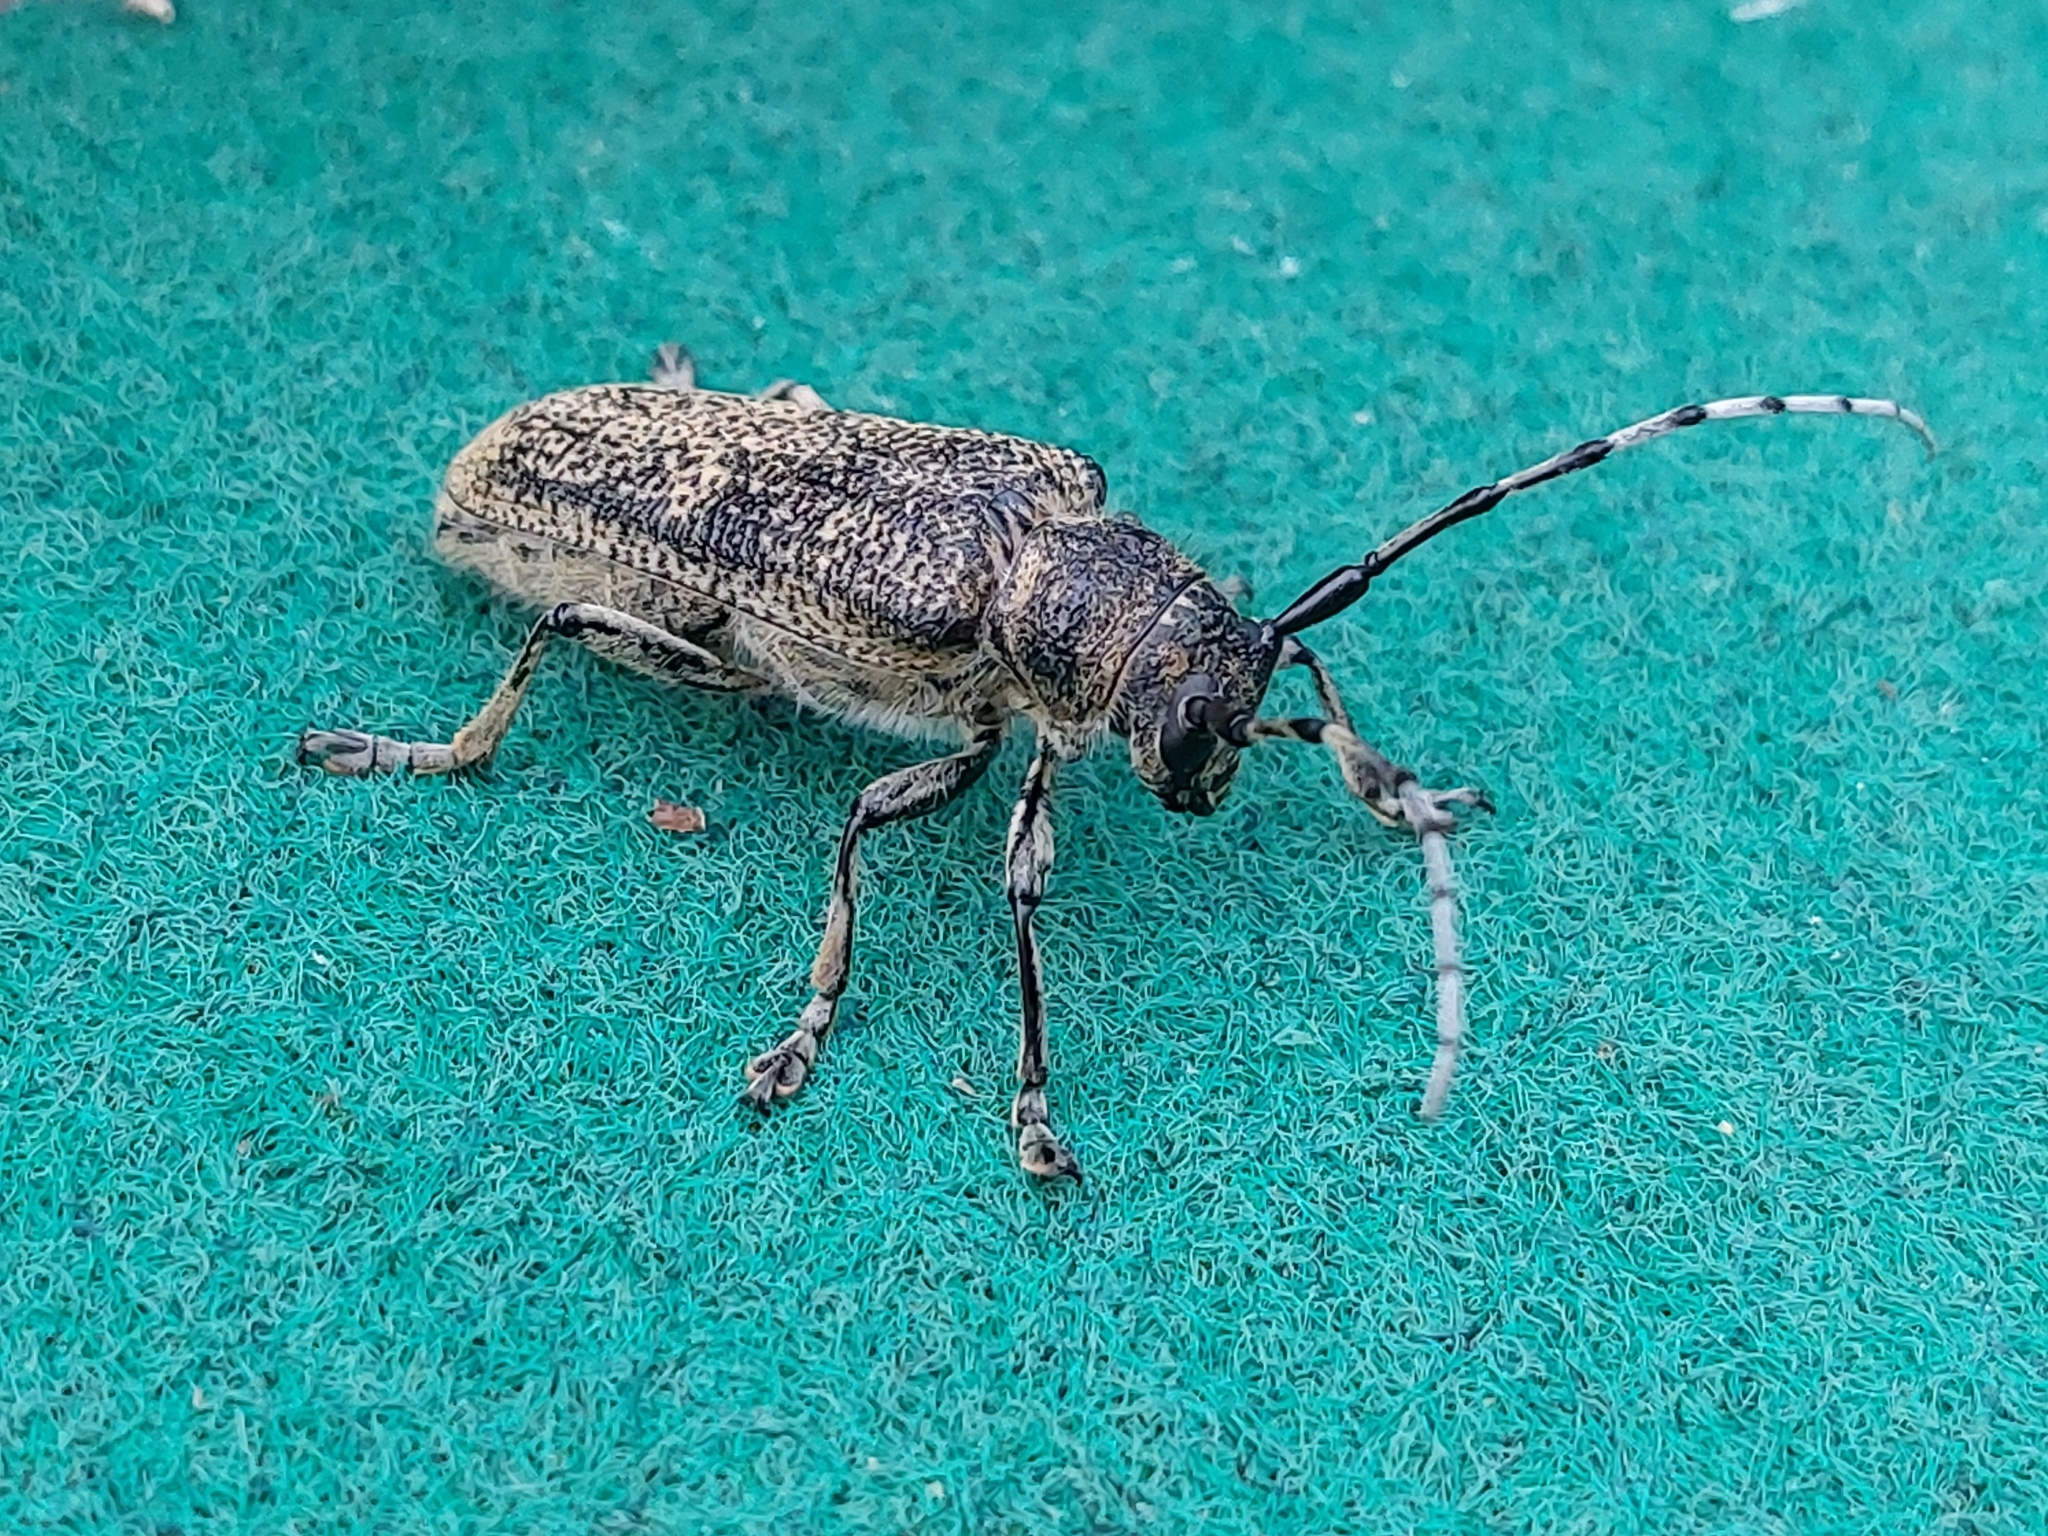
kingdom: Animalia
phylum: Arthropoda
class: Insecta
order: Coleoptera
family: Cerambycidae
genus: Saperda
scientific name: Saperda carcharias
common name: Poplar borer
